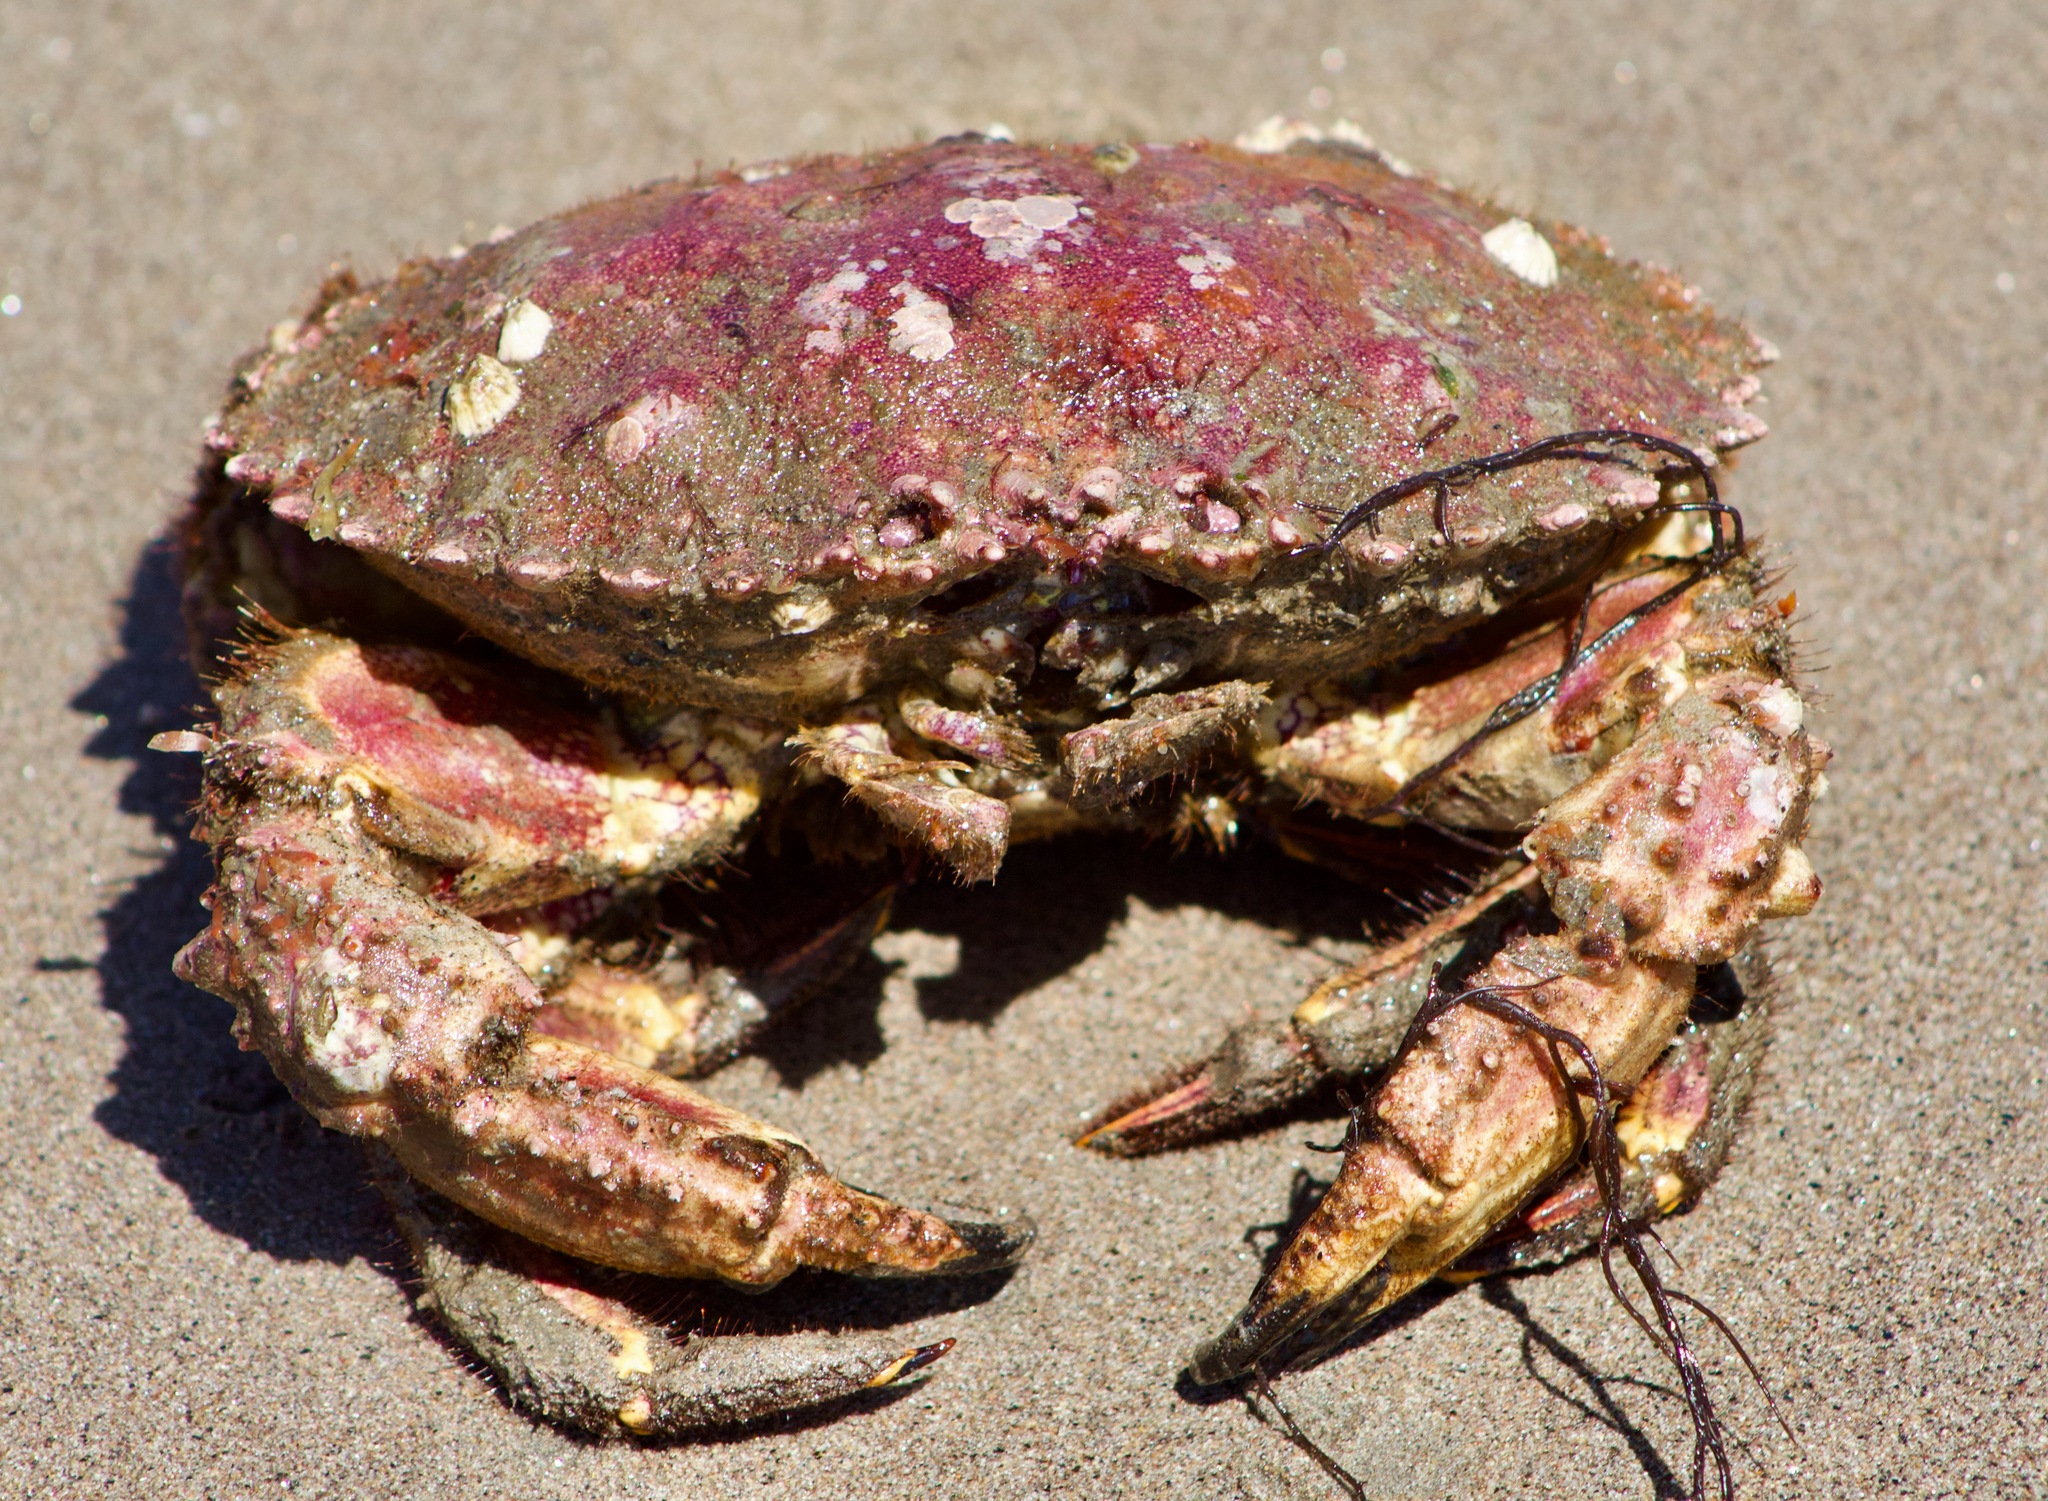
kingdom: Animalia
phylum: Arthropoda
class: Malacostraca
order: Decapoda
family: Cancridae
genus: Romaleon
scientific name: Romaleon setosum
